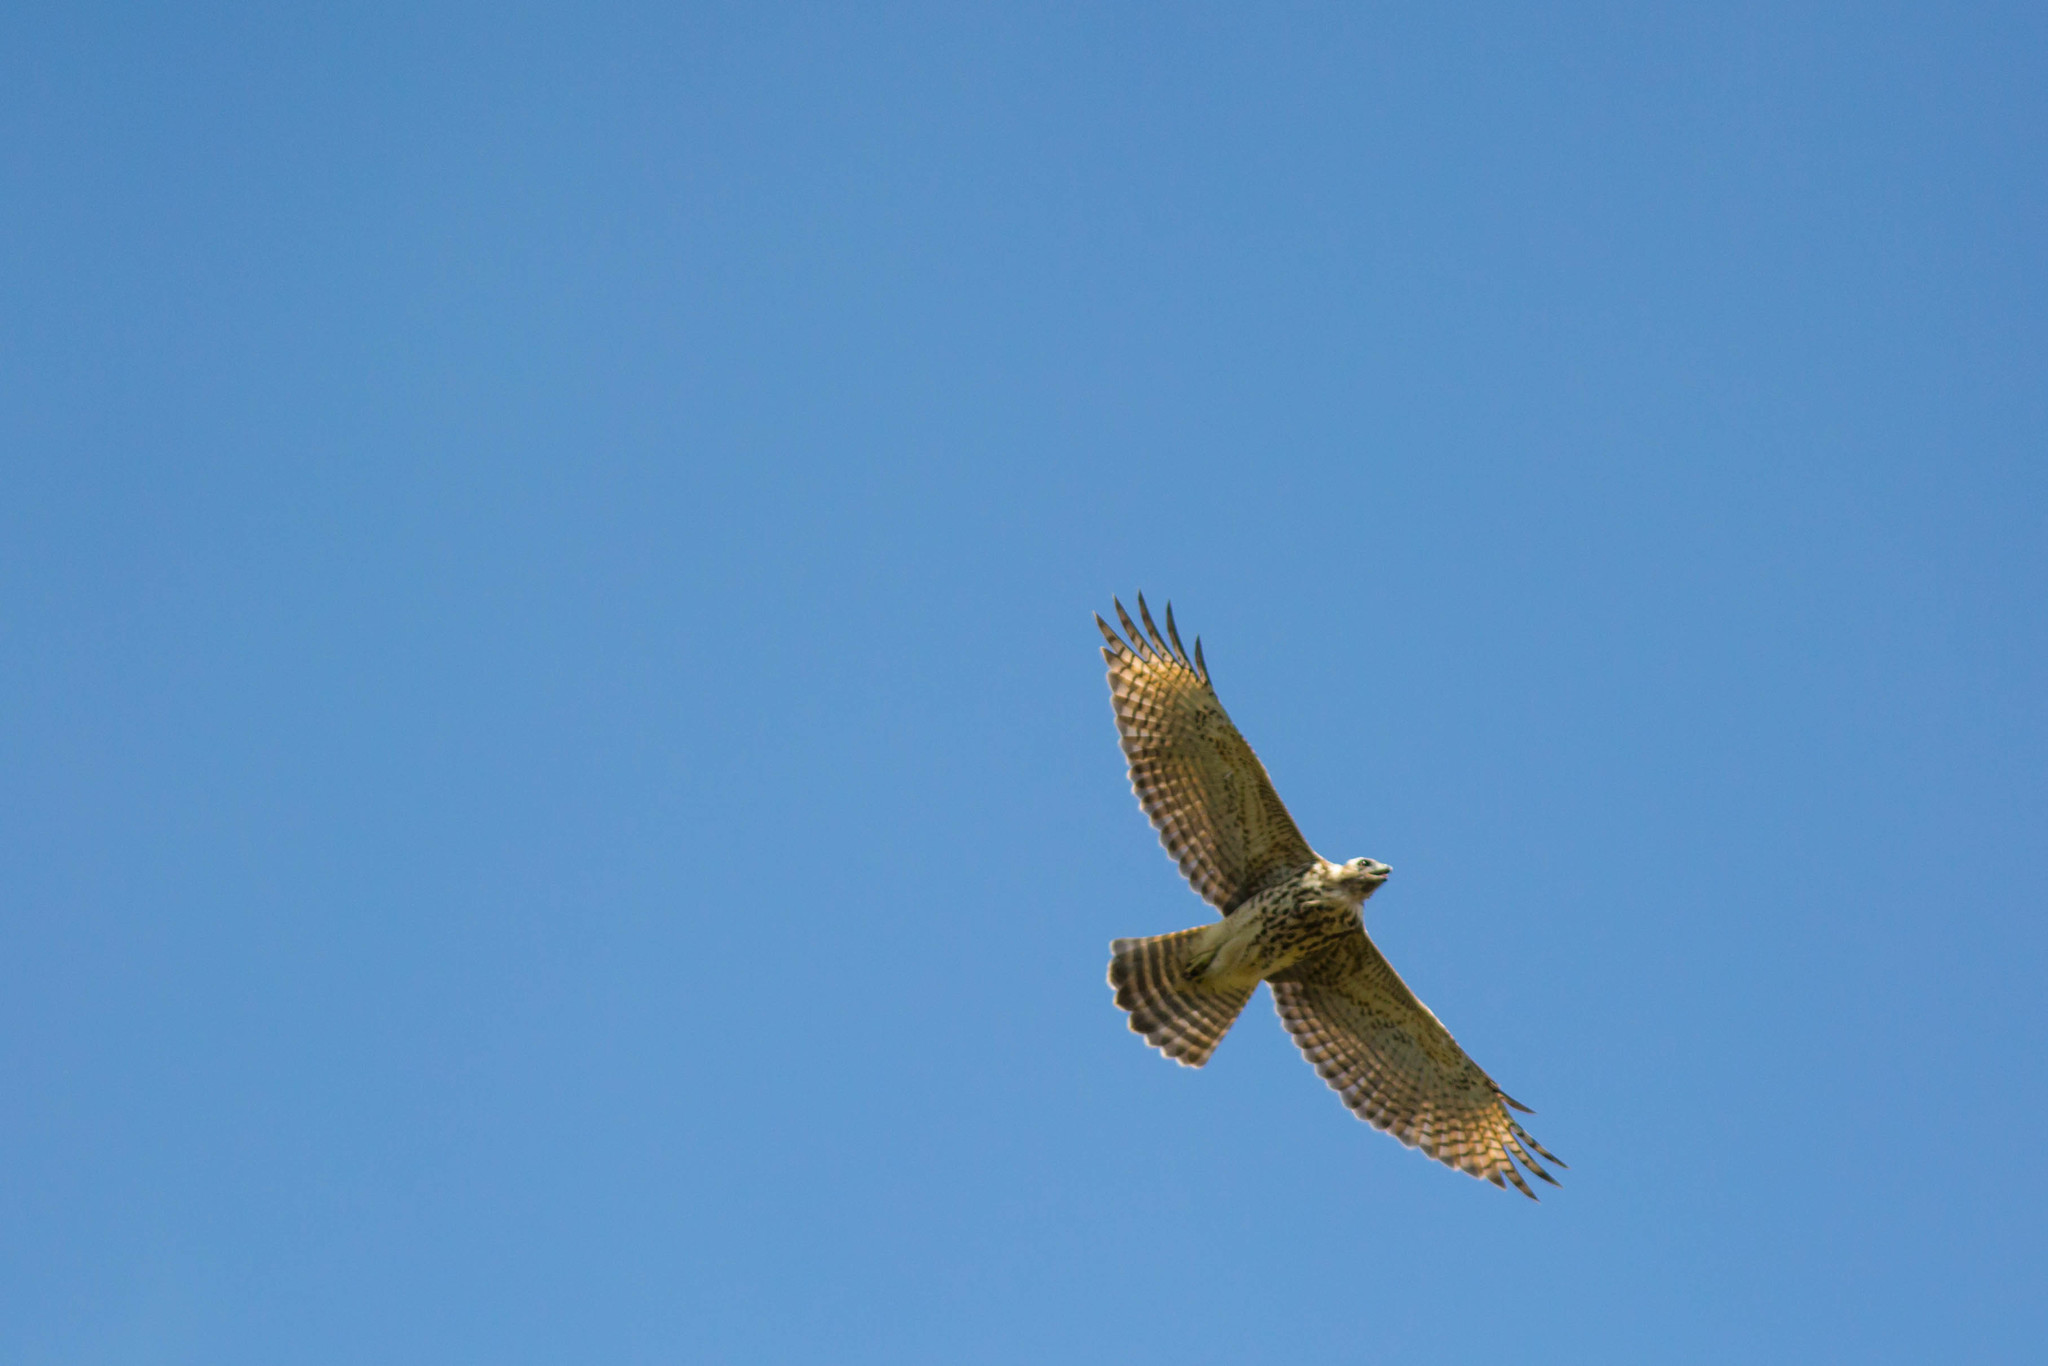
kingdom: Animalia
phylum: Chordata
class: Aves
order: Accipitriformes
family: Accipitridae
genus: Buteo
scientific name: Buteo jamaicensis
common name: Red-tailed hawk
